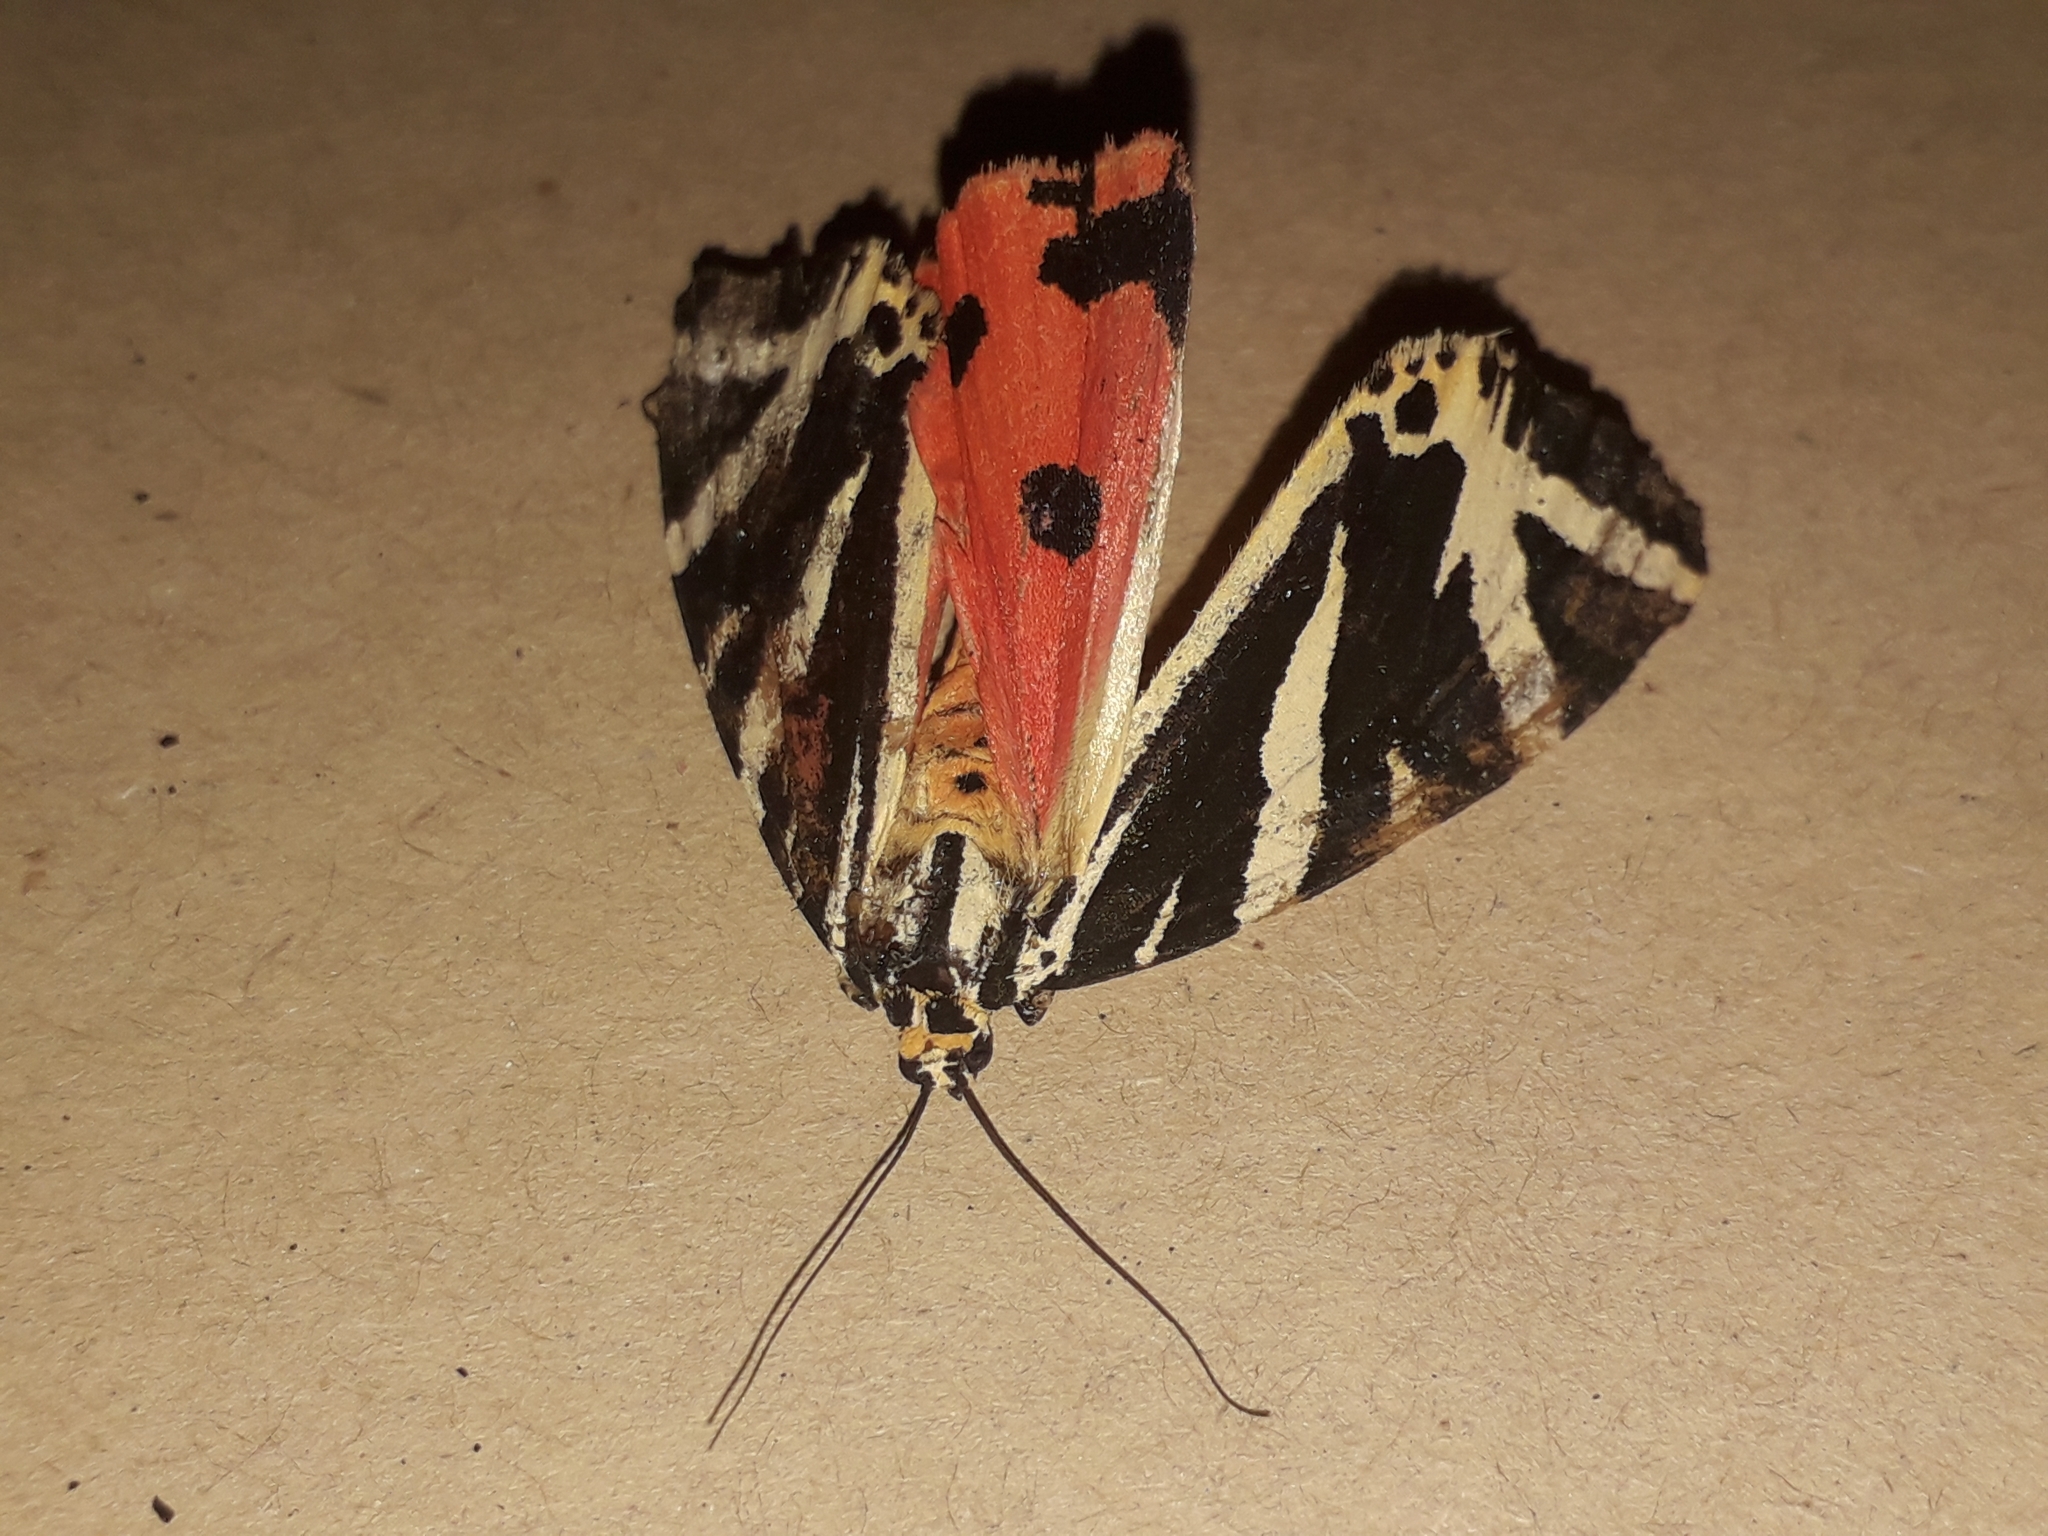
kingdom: Animalia
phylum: Arthropoda
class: Insecta
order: Lepidoptera
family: Erebidae
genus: Euplagia
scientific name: Euplagia quadripunctaria
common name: Jersey tiger
